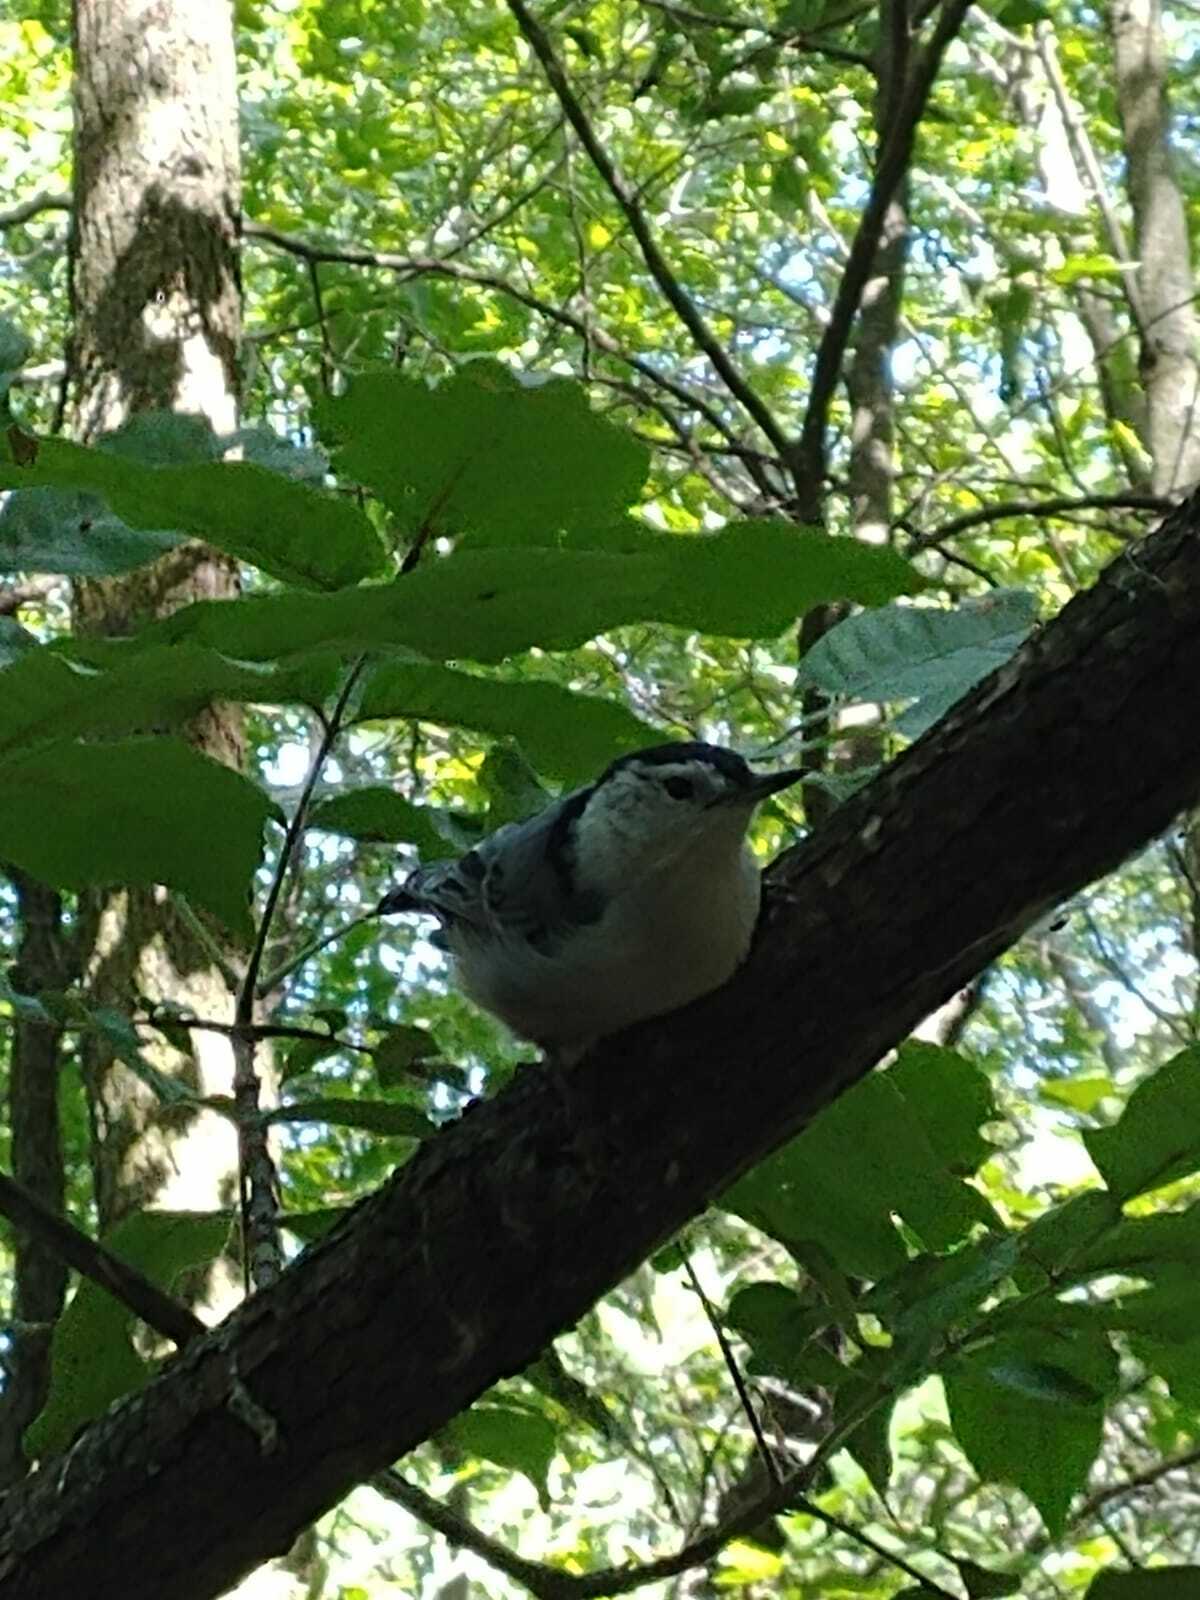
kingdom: Animalia
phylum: Chordata
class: Aves
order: Passeriformes
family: Sittidae
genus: Sitta
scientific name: Sitta carolinensis
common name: White-breasted nuthatch
